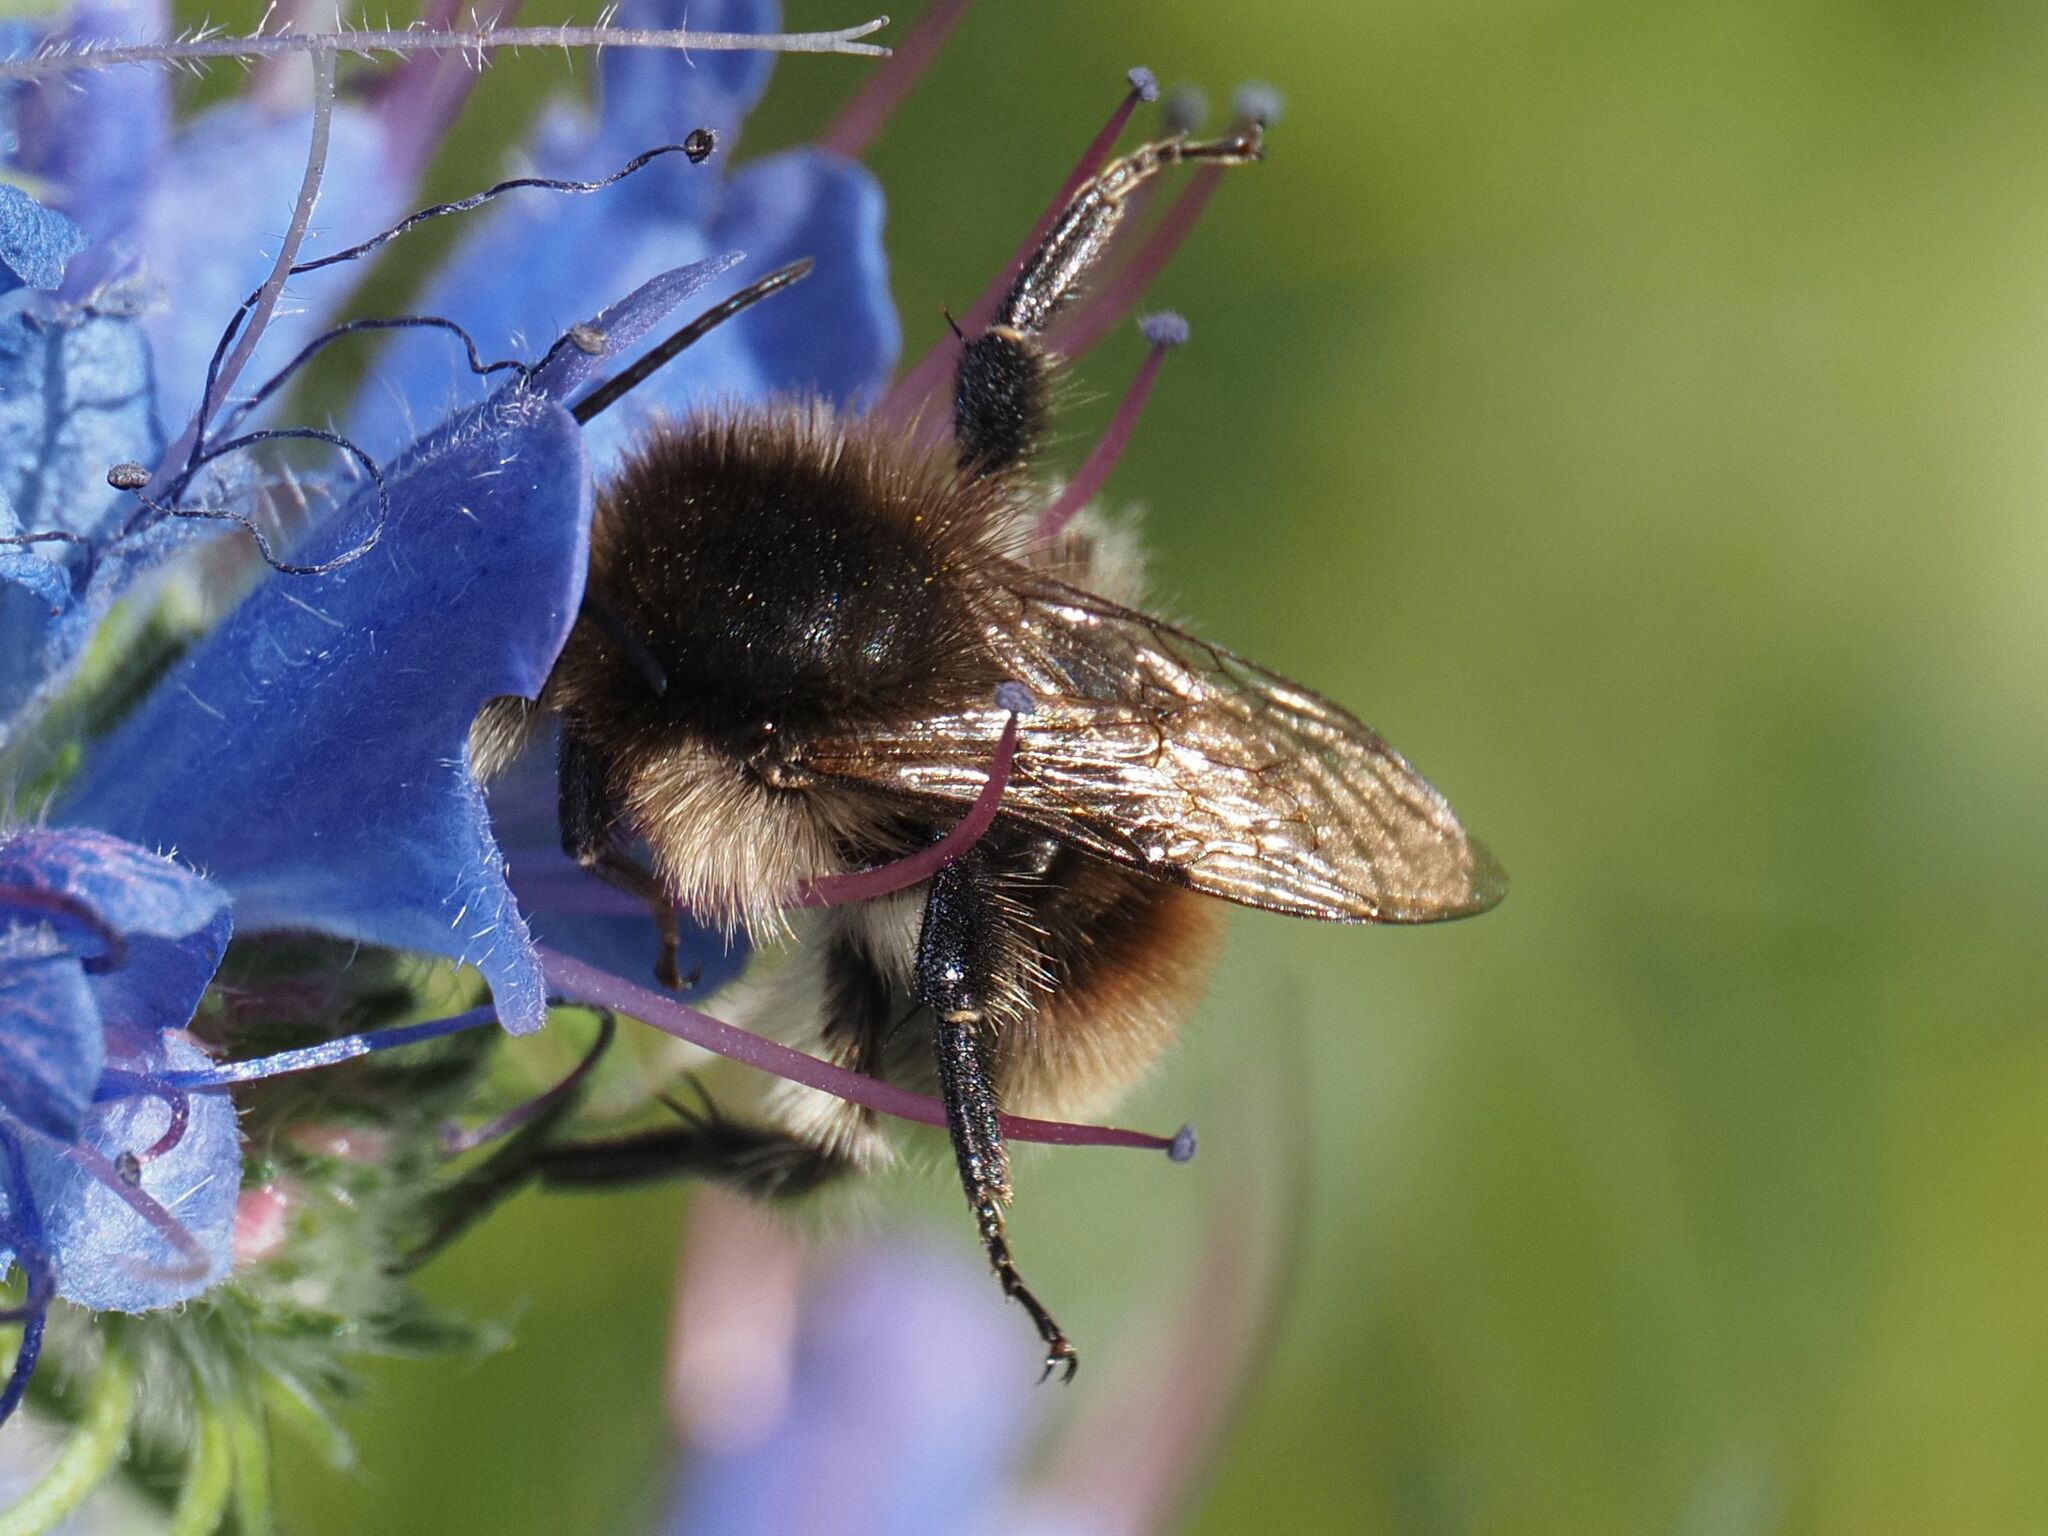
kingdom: Animalia
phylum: Arthropoda
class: Insecta
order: Hymenoptera
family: Apidae
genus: Bombus
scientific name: Bombus humilis
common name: Brown-banded carder-bee
